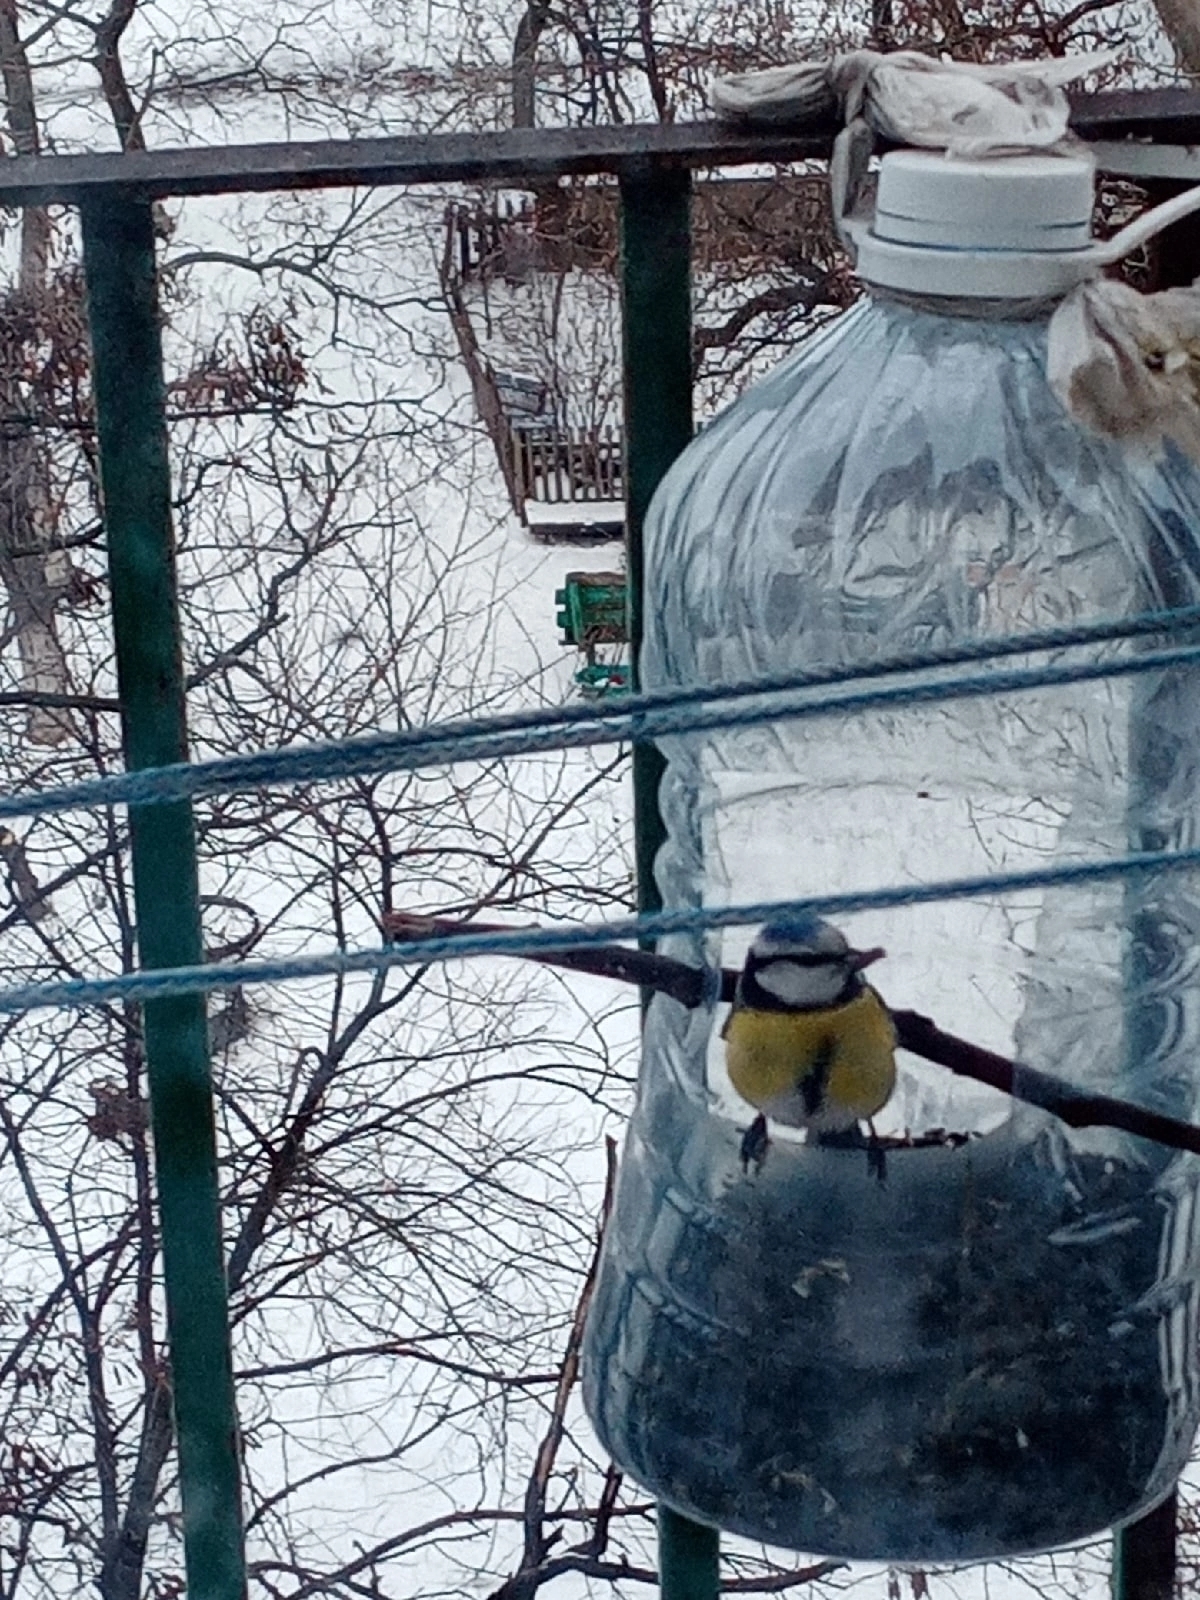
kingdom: Animalia
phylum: Chordata
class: Aves
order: Passeriformes
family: Paridae
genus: Cyanistes
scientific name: Cyanistes caeruleus
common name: Eurasian blue tit
